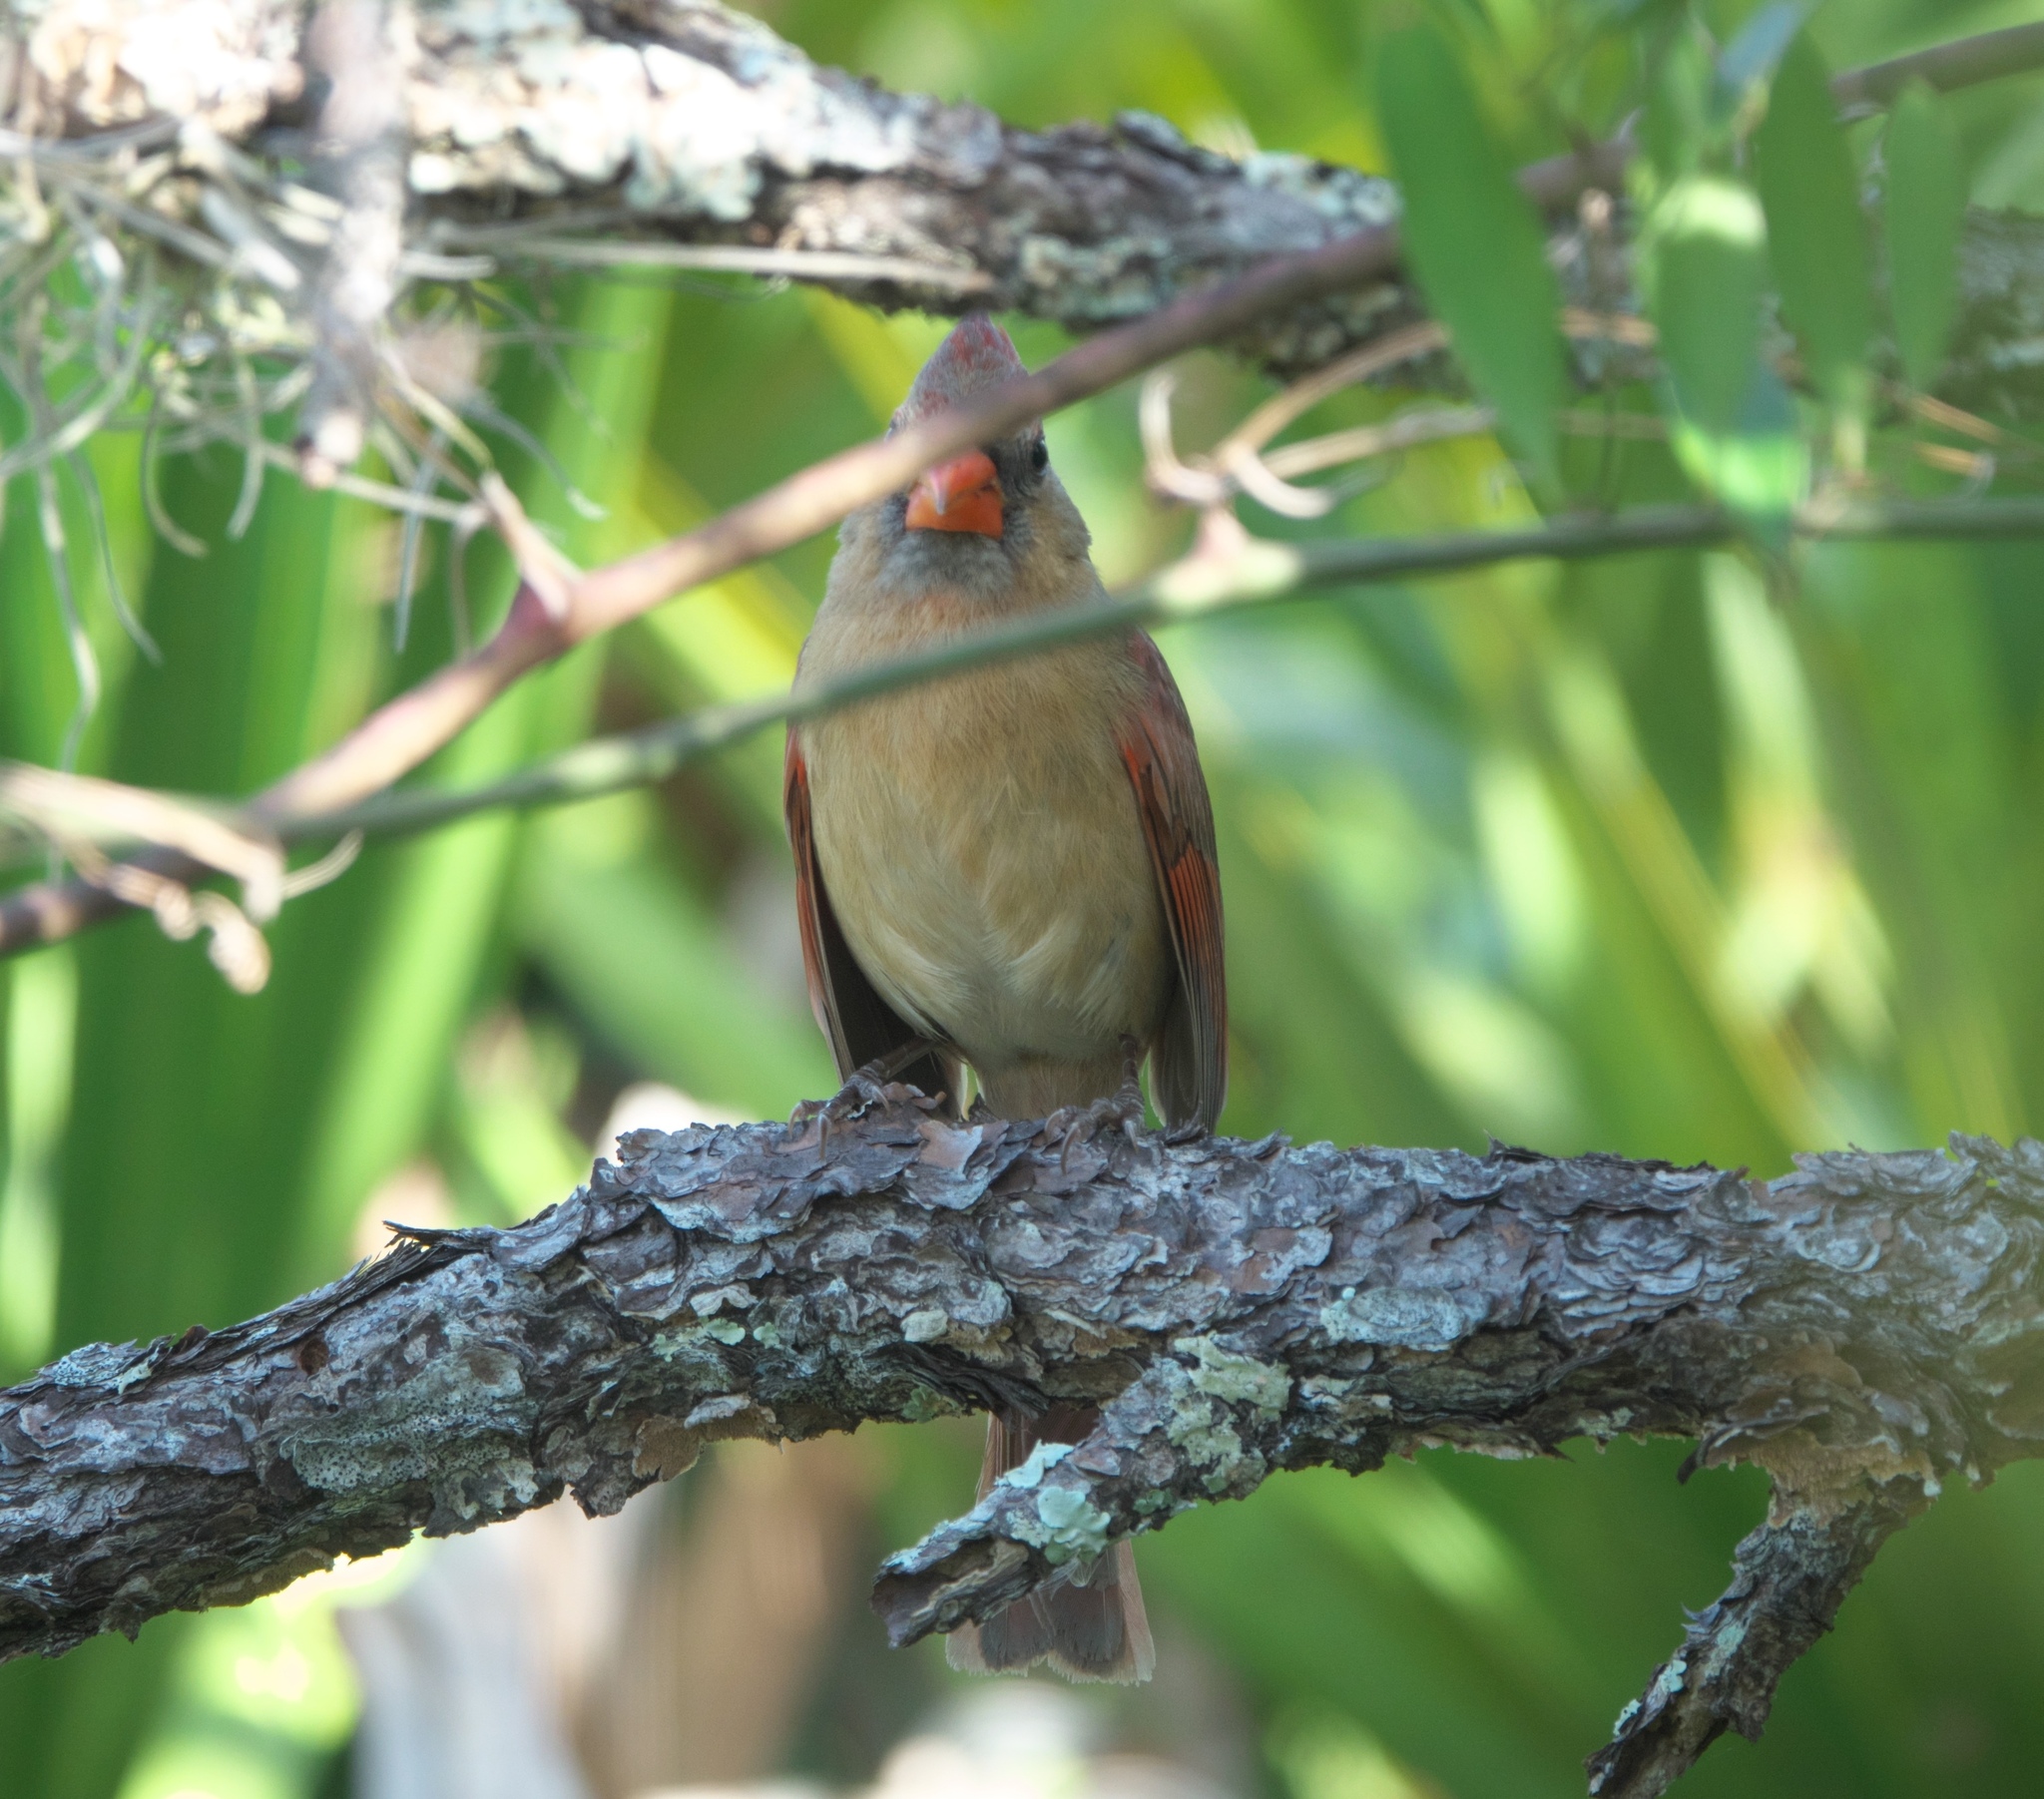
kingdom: Animalia
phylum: Chordata
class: Aves
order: Passeriformes
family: Cardinalidae
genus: Cardinalis
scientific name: Cardinalis cardinalis
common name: Northern cardinal
